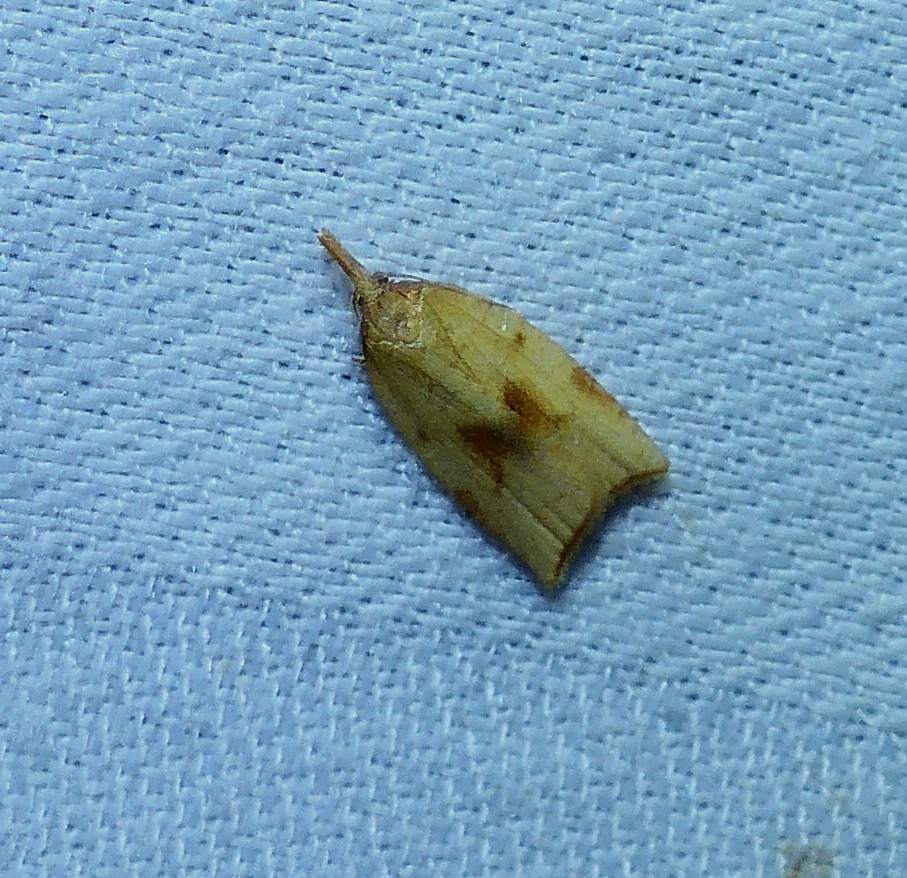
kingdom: Animalia
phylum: Arthropoda
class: Insecta
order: Lepidoptera
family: Tortricidae
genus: Sparganothis
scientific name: Sparganothis xanthoides
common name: Mosaic sparganothis moth
